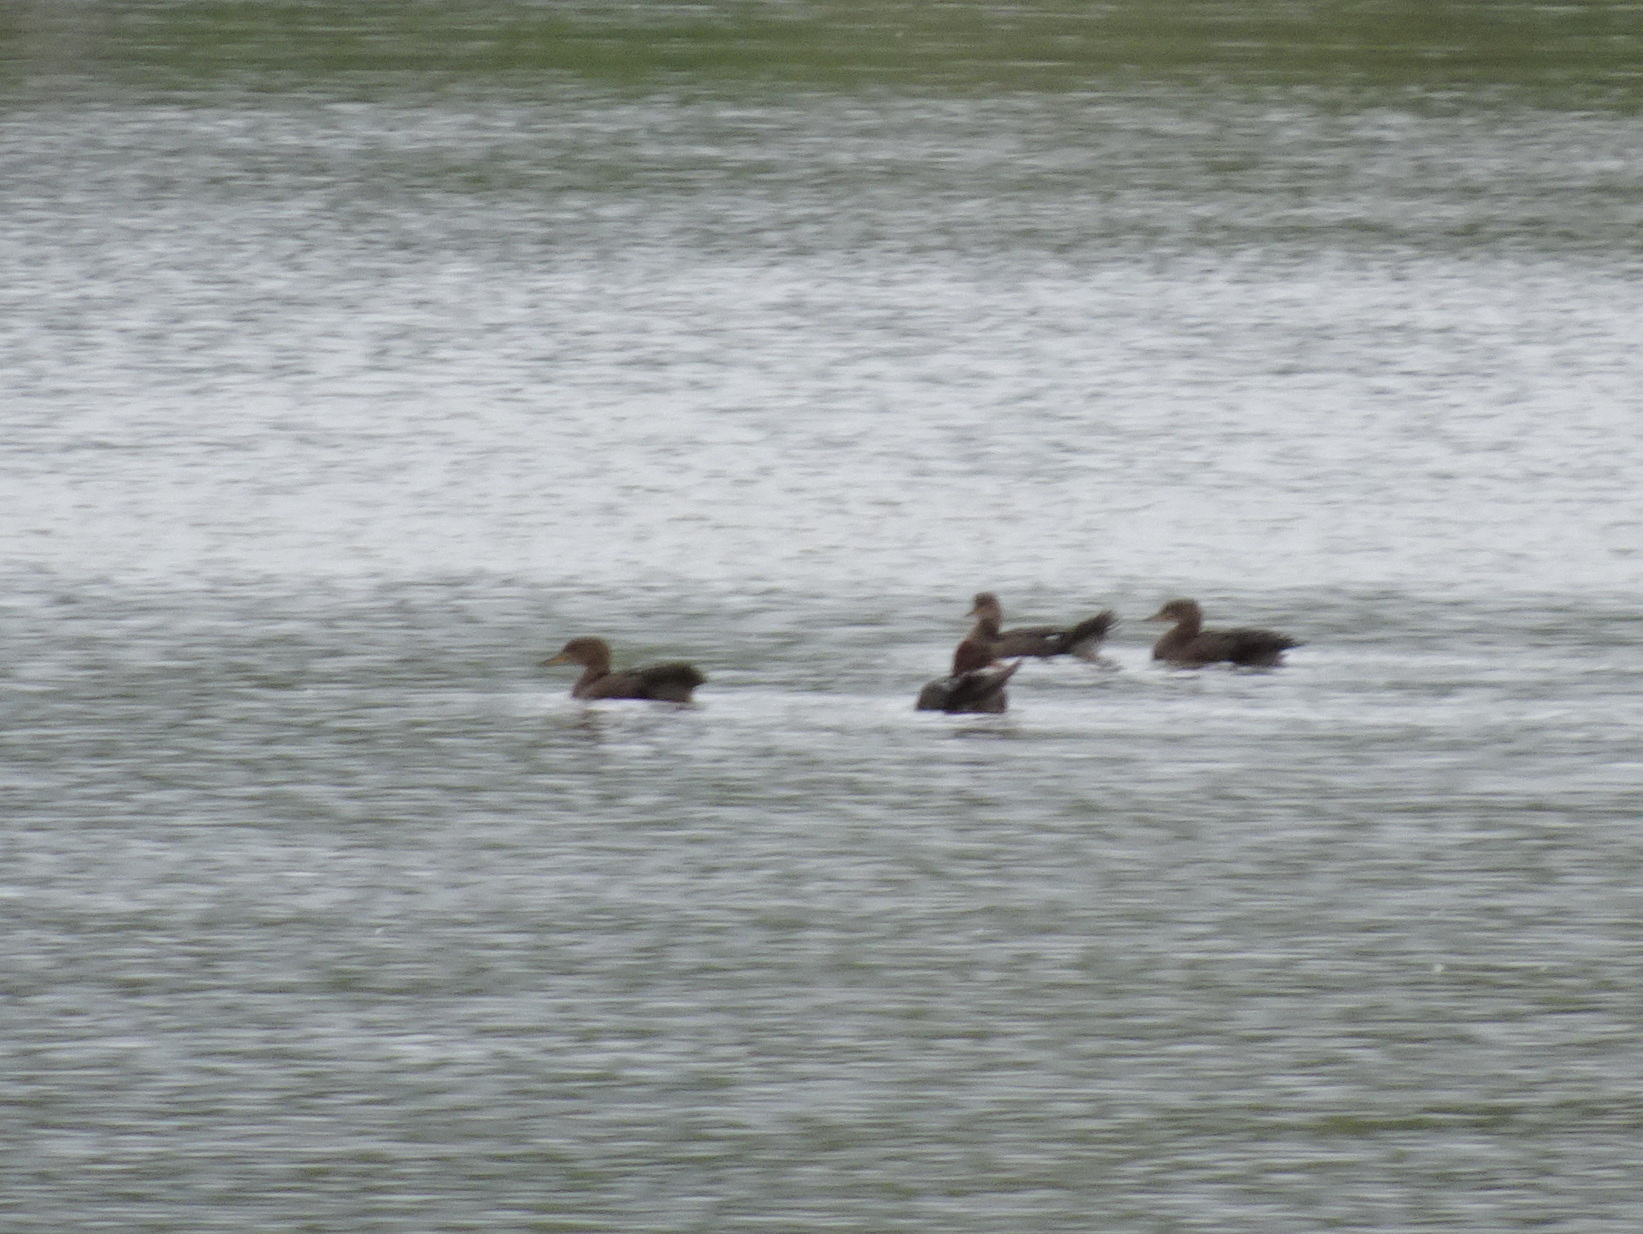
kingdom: Animalia
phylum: Chordata
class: Aves
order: Anseriformes
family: Anatidae
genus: Lophodytes
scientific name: Lophodytes cucullatus
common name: Hooded merganser
